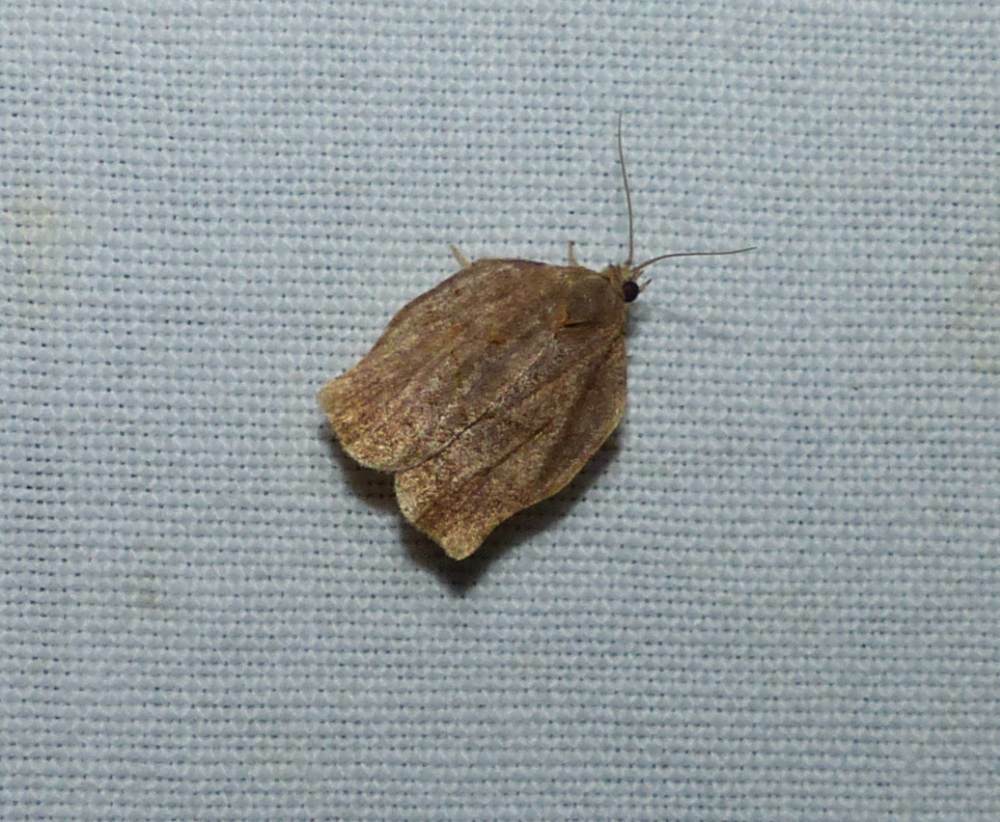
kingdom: Animalia
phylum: Arthropoda
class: Insecta
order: Lepidoptera
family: Tortricidae
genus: Archips
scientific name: Archips purpurana
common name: Omnivorous leafroller
